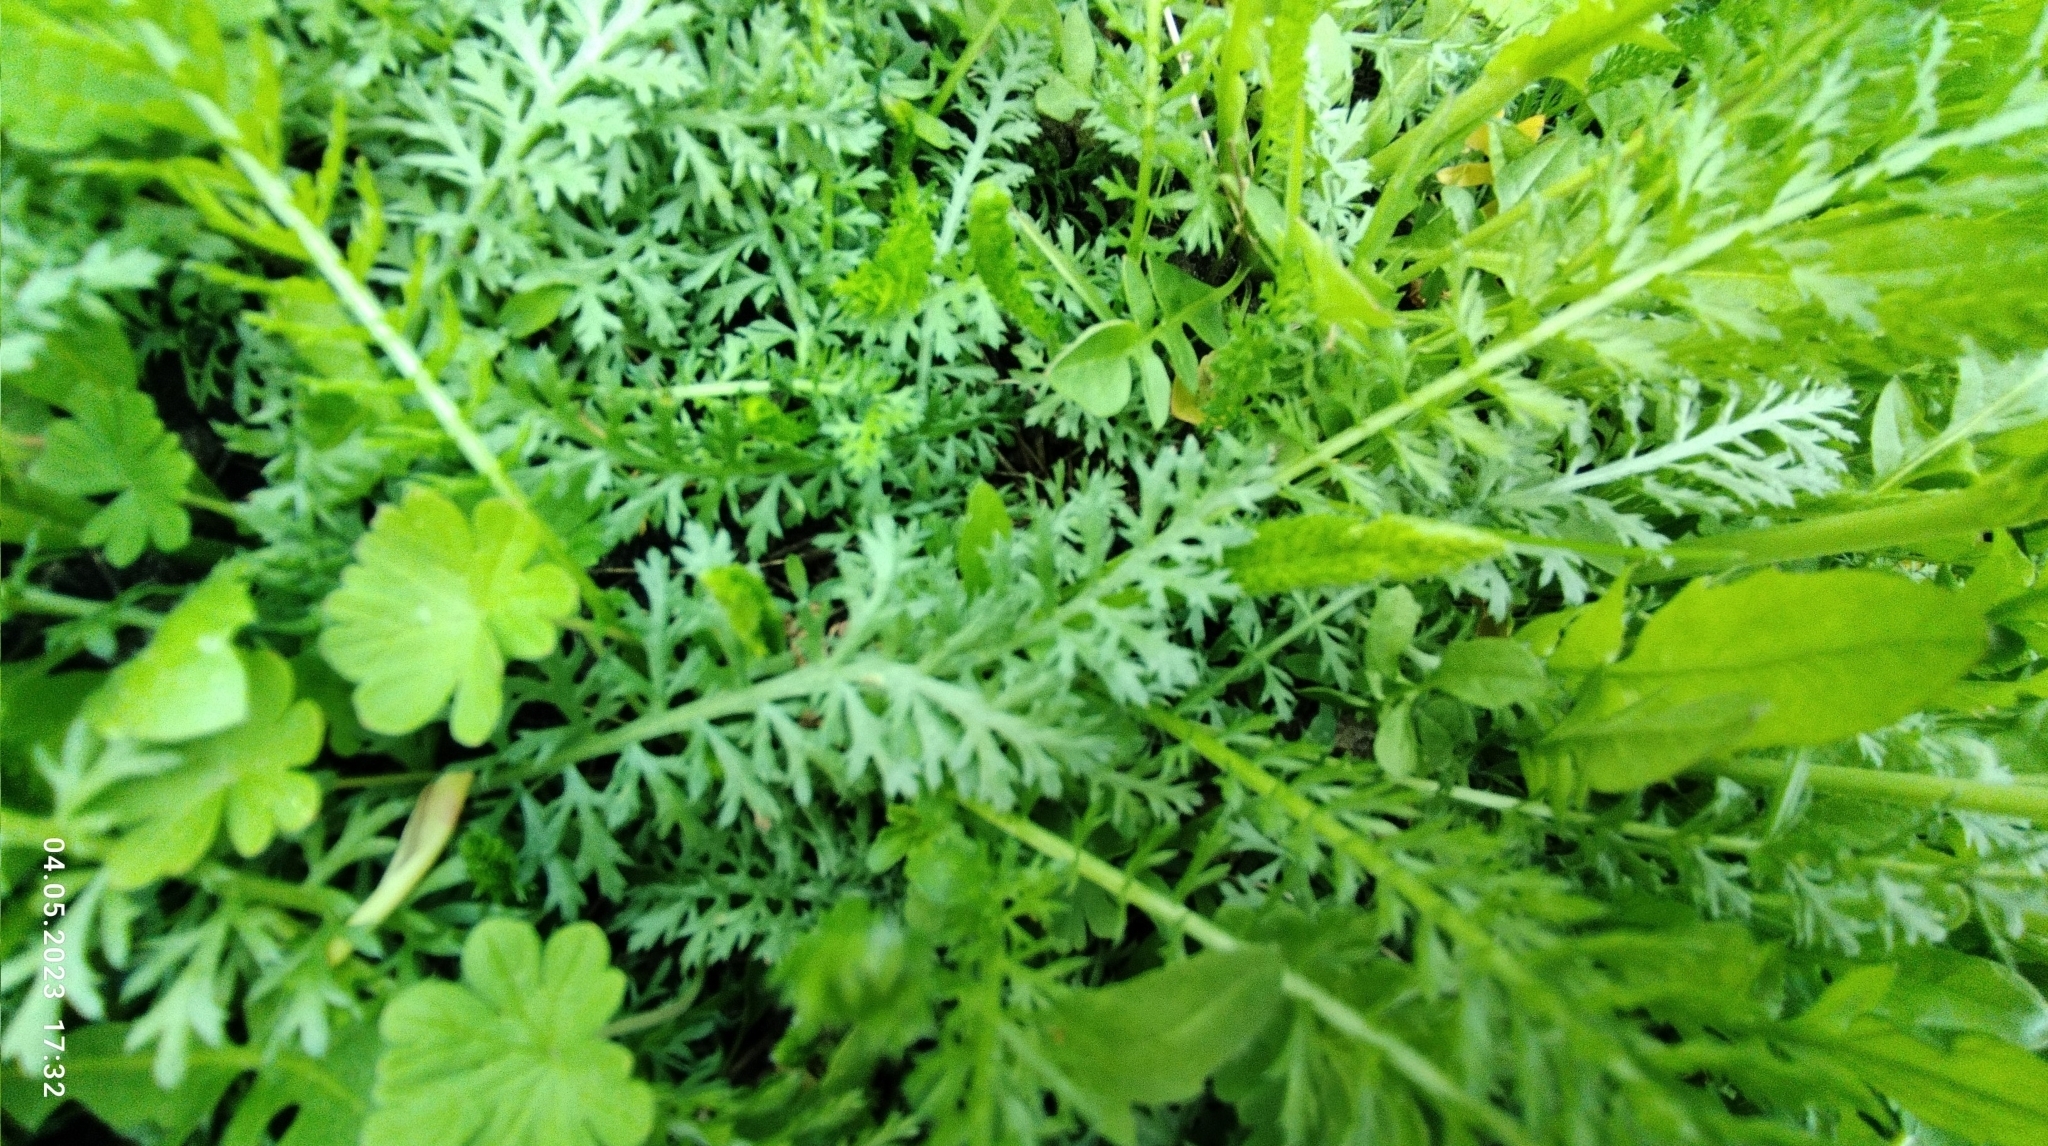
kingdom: Plantae
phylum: Tracheophyta
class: Magnoliopsida
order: Asterales
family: Asteraceae
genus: Achillea
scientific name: Achillea millefolium
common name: Yarrow
